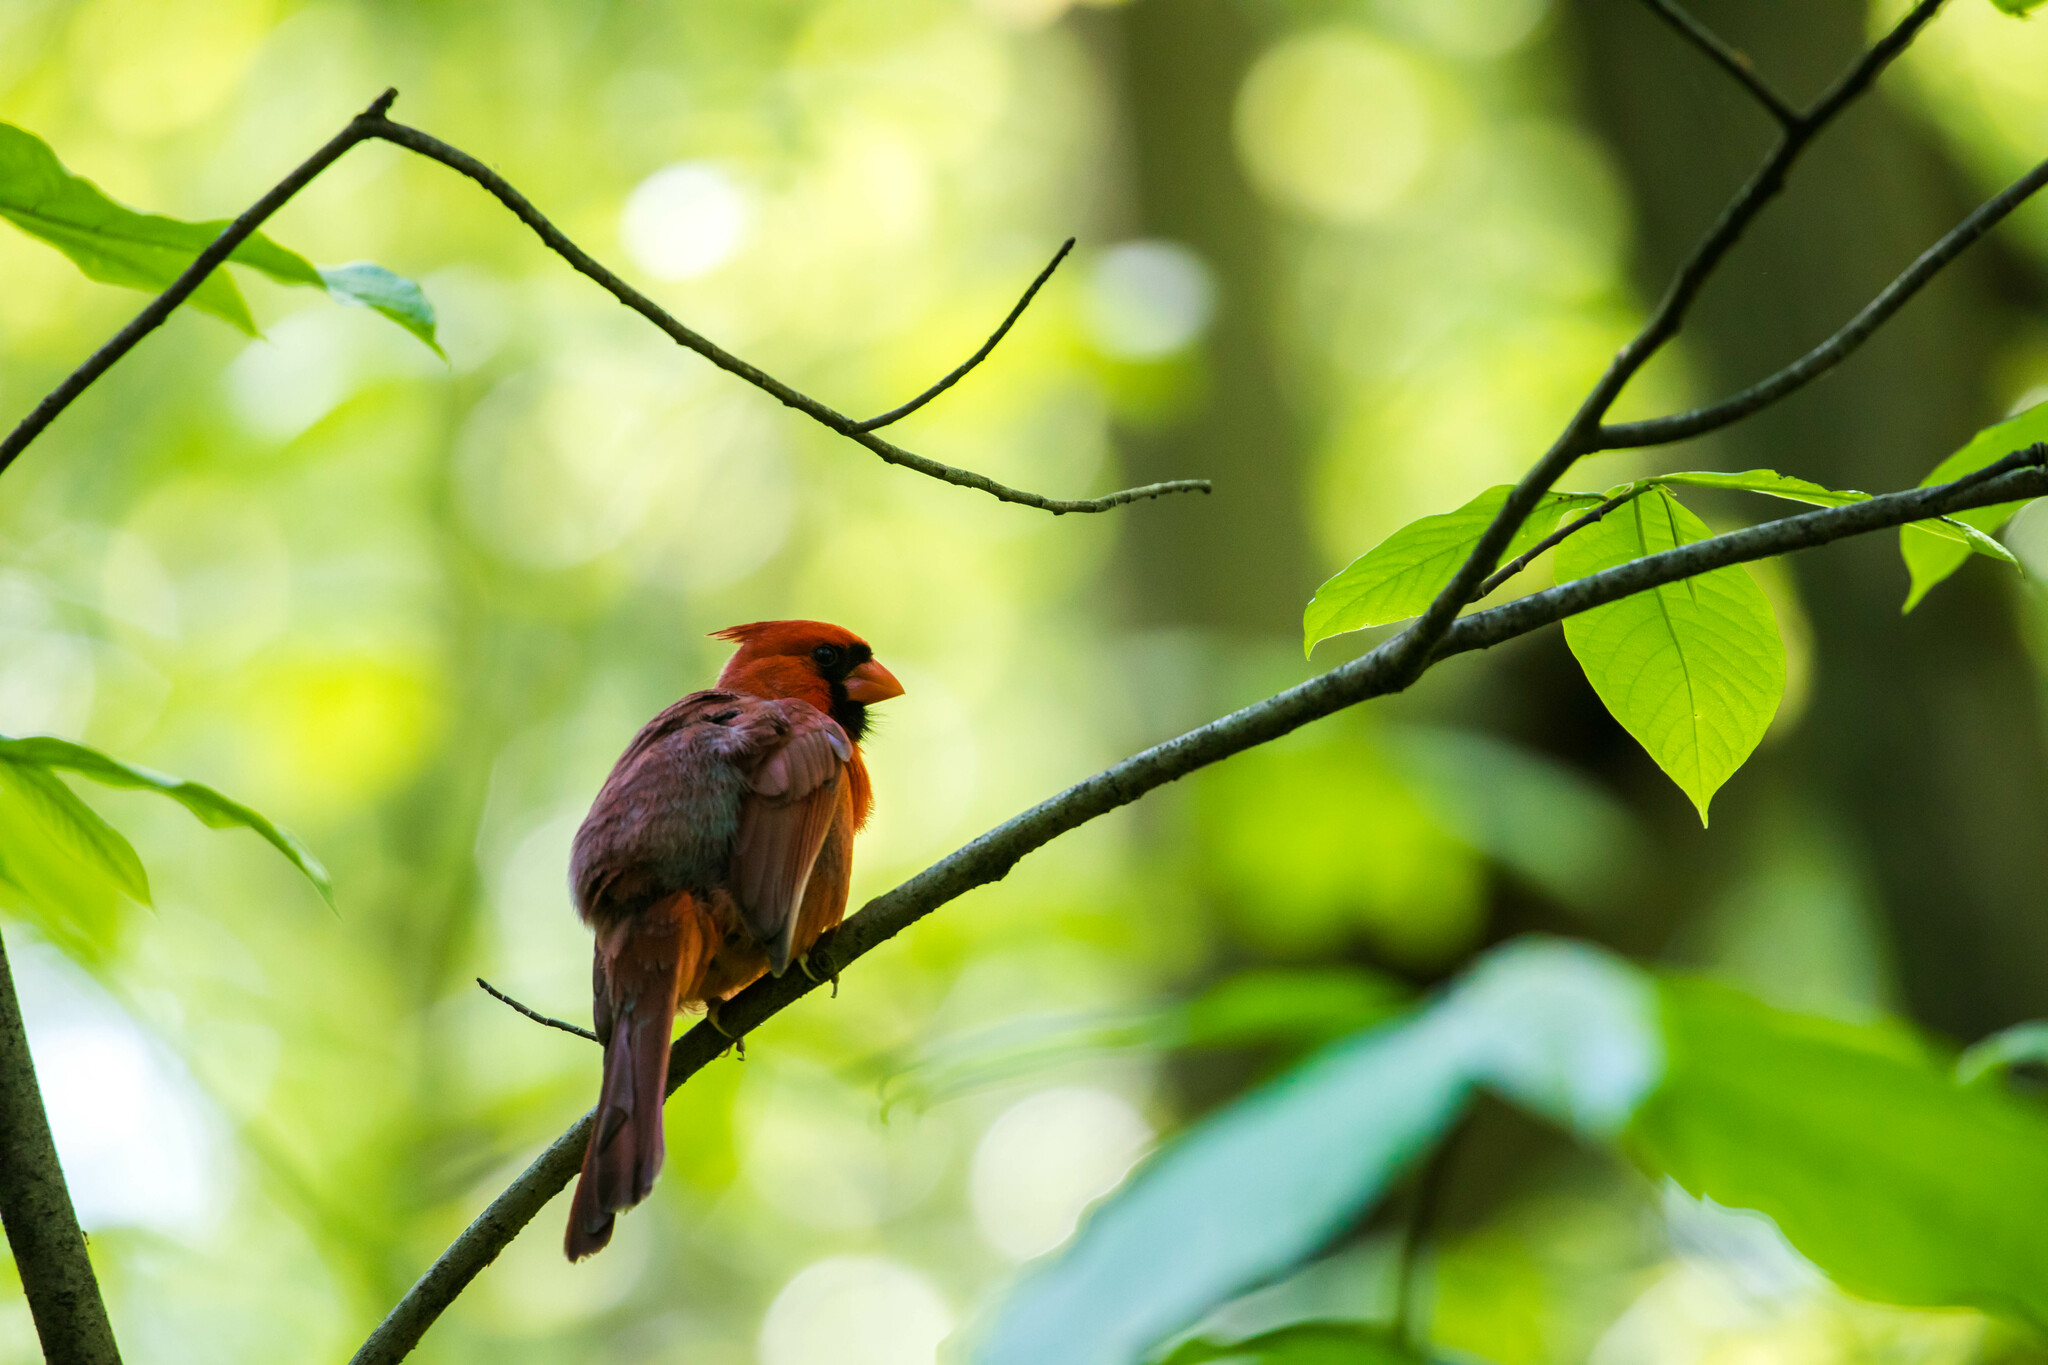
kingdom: Animalia
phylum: Chordata
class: Aves
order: Passeriformes
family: Cardinalidae
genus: Cardinalis
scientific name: Cardinalis cardinalis
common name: Northern cardinal
